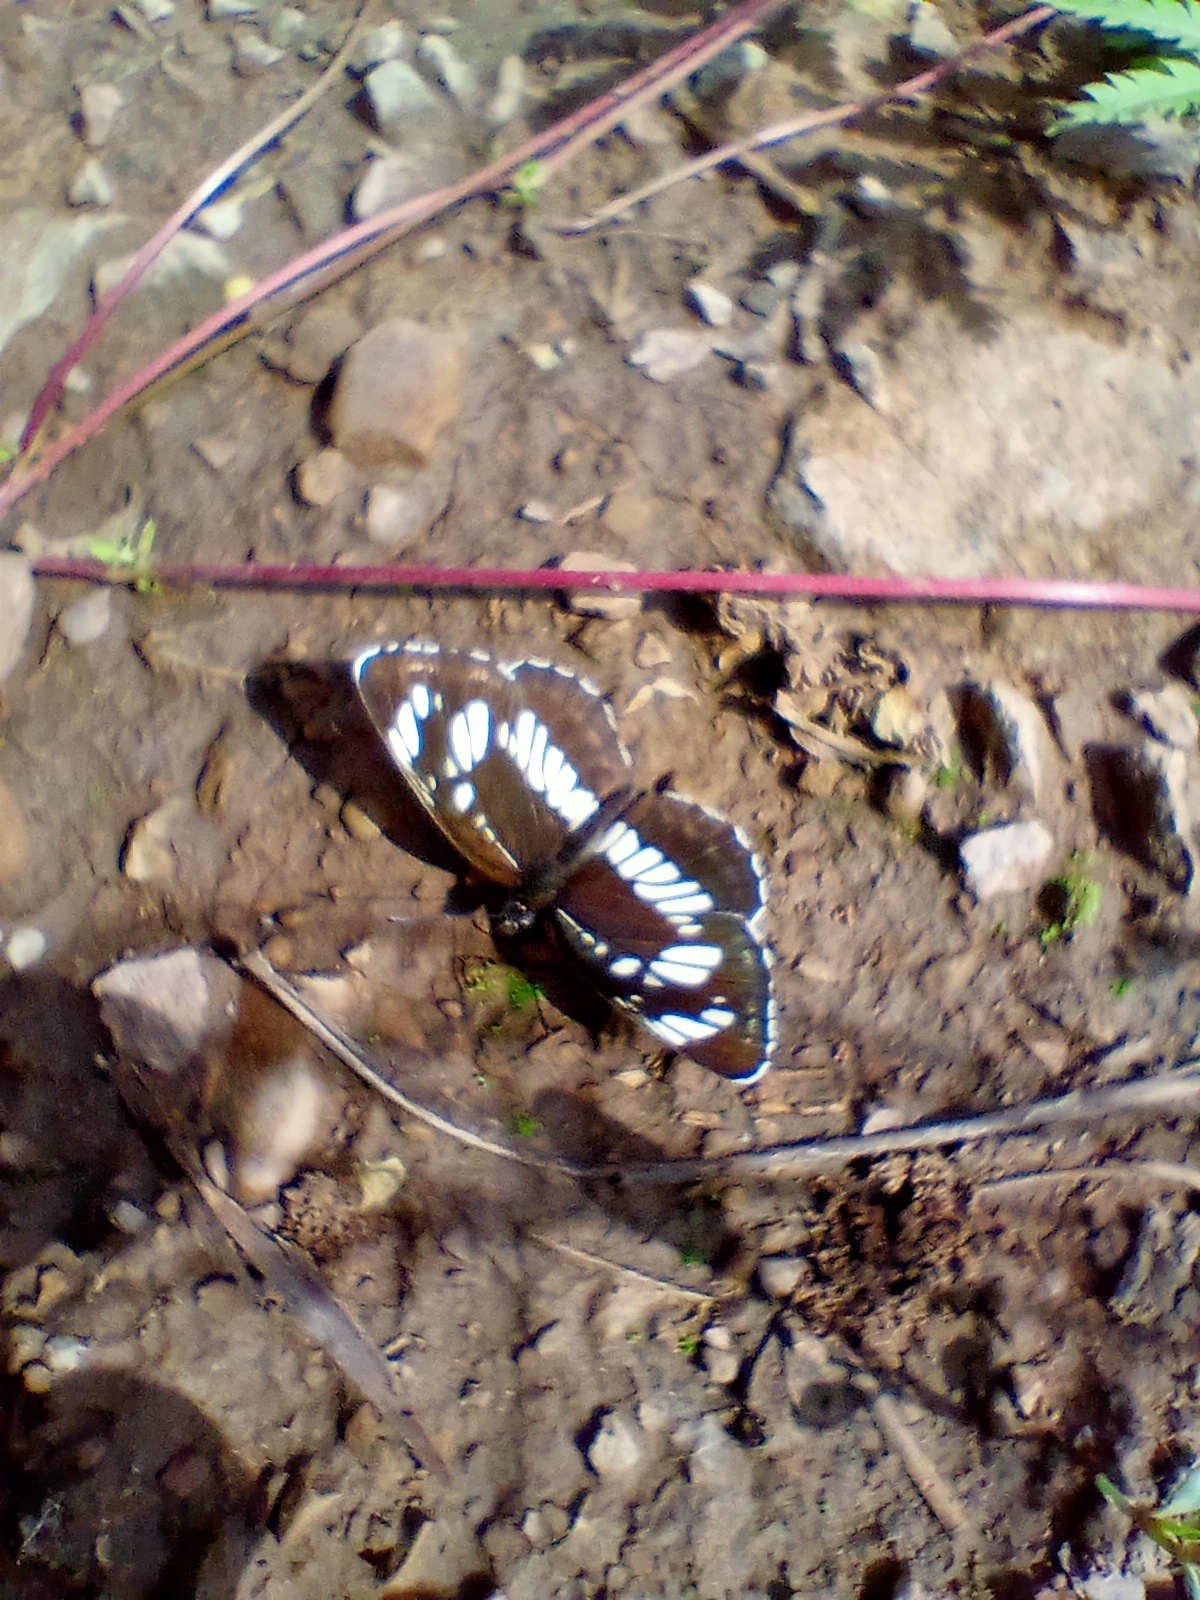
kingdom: Animalia
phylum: Arthropoda
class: Insecta
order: Lepidoptera
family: Nymphalidae
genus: Neptis
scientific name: Neptis rivularis
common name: Hungarian glider
